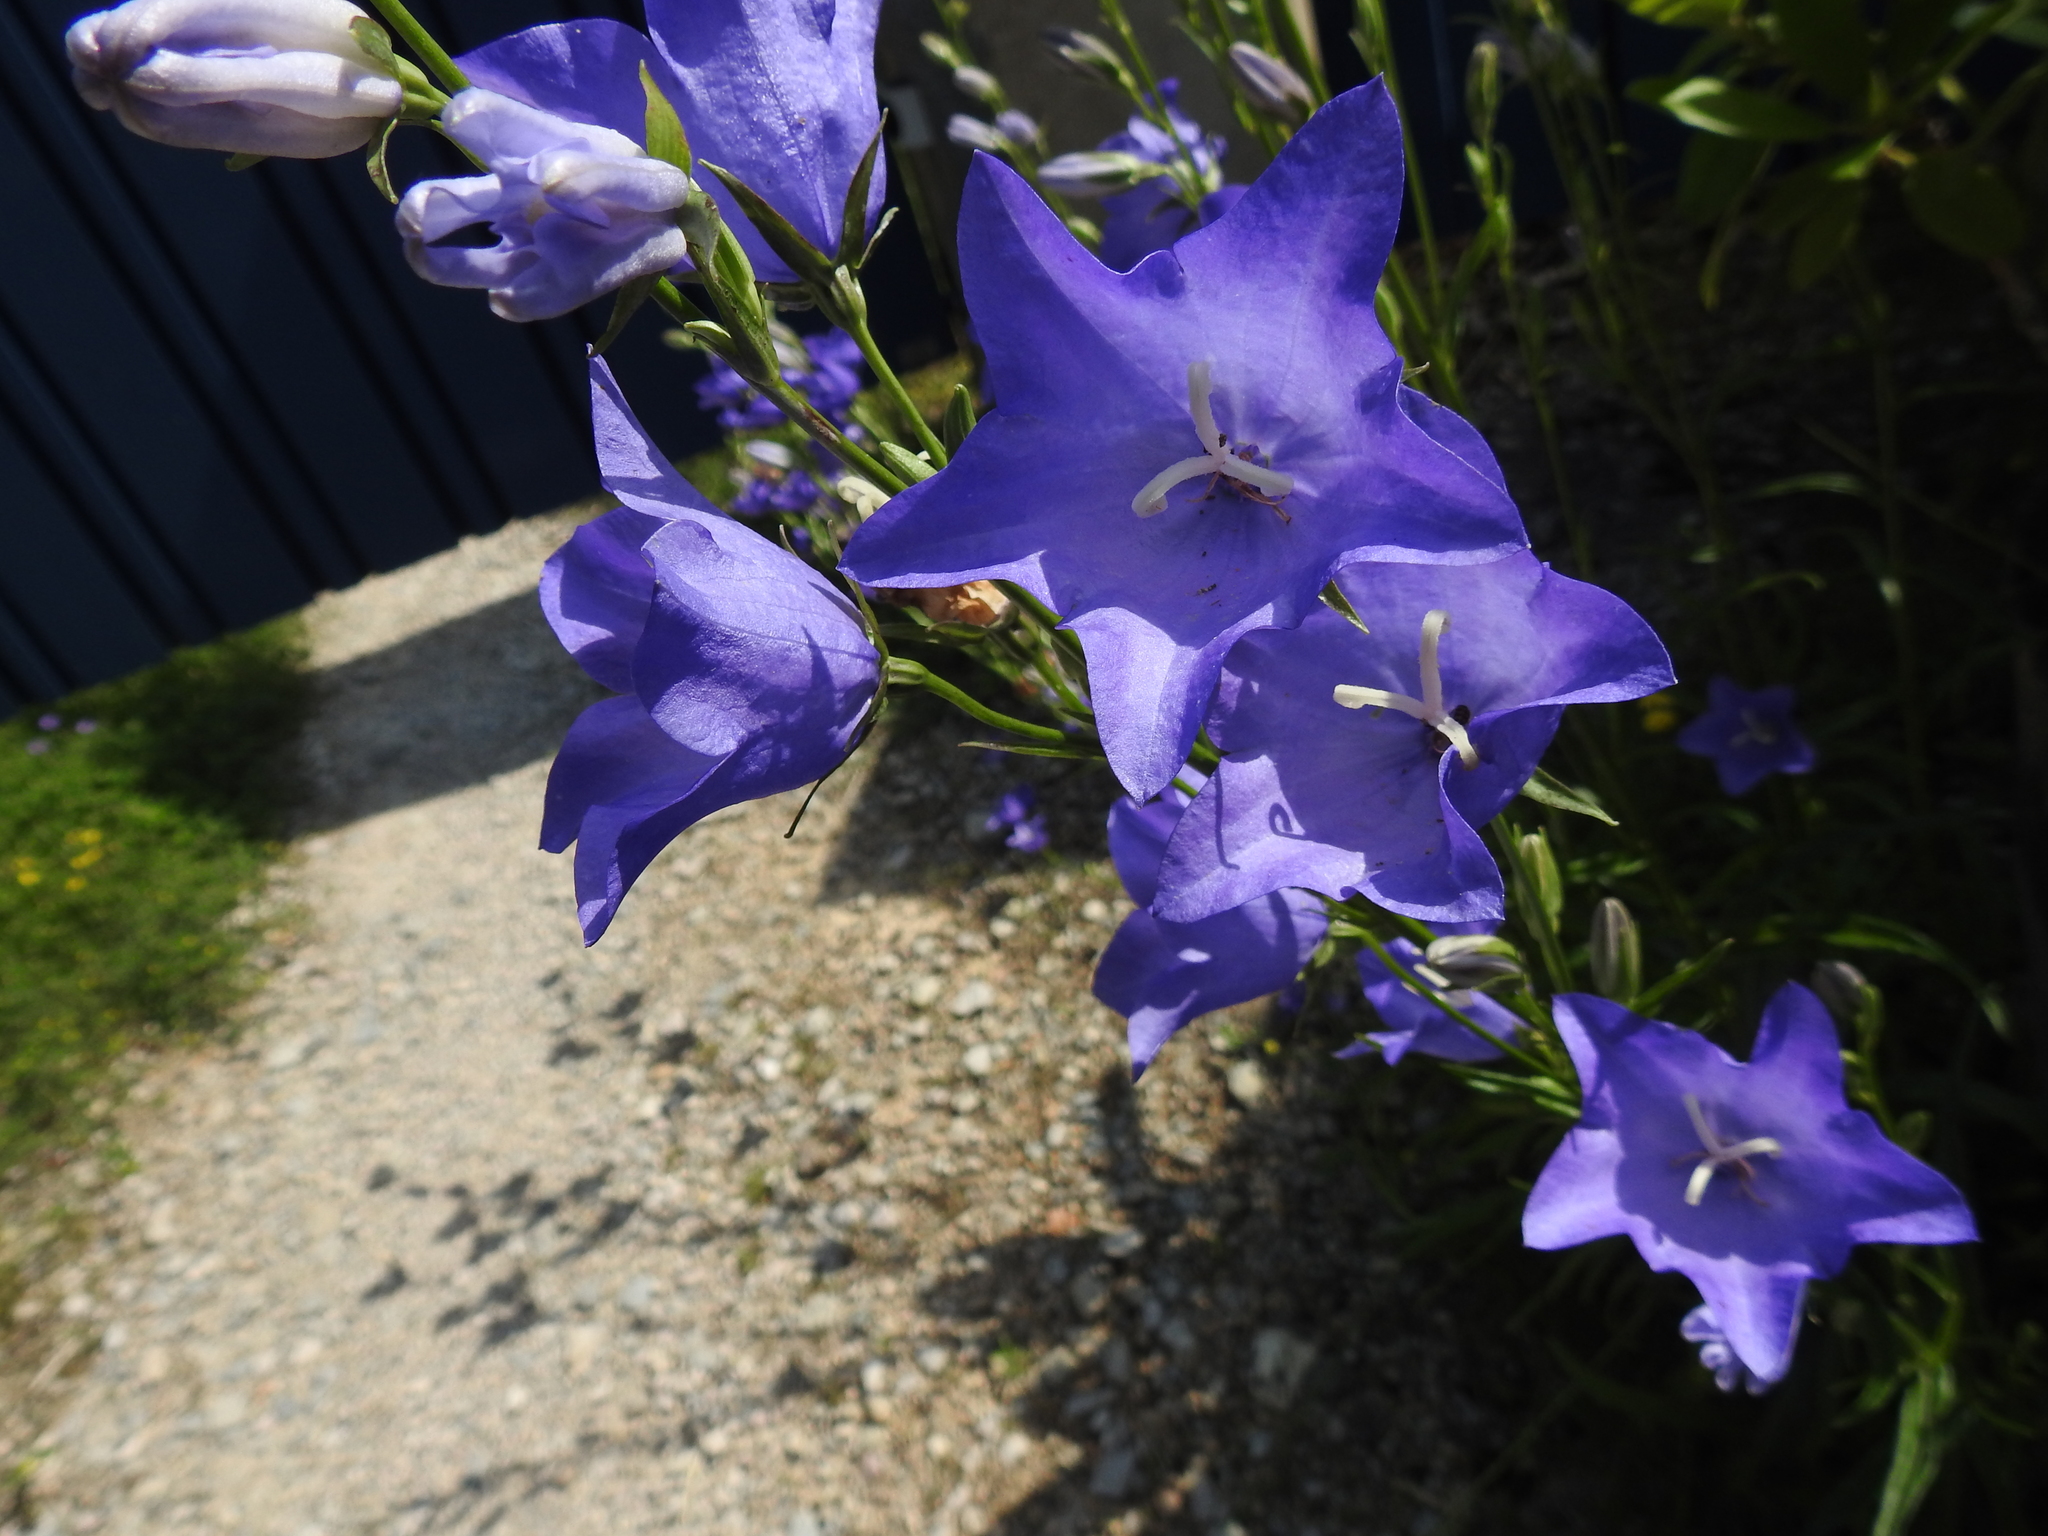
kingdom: Plantae
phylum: Tracheophyta
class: Magnoliopsida
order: Asterales
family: Campanulaceae
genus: Campanula
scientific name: Campanula persicifolia
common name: Peach-leaved bellflower
